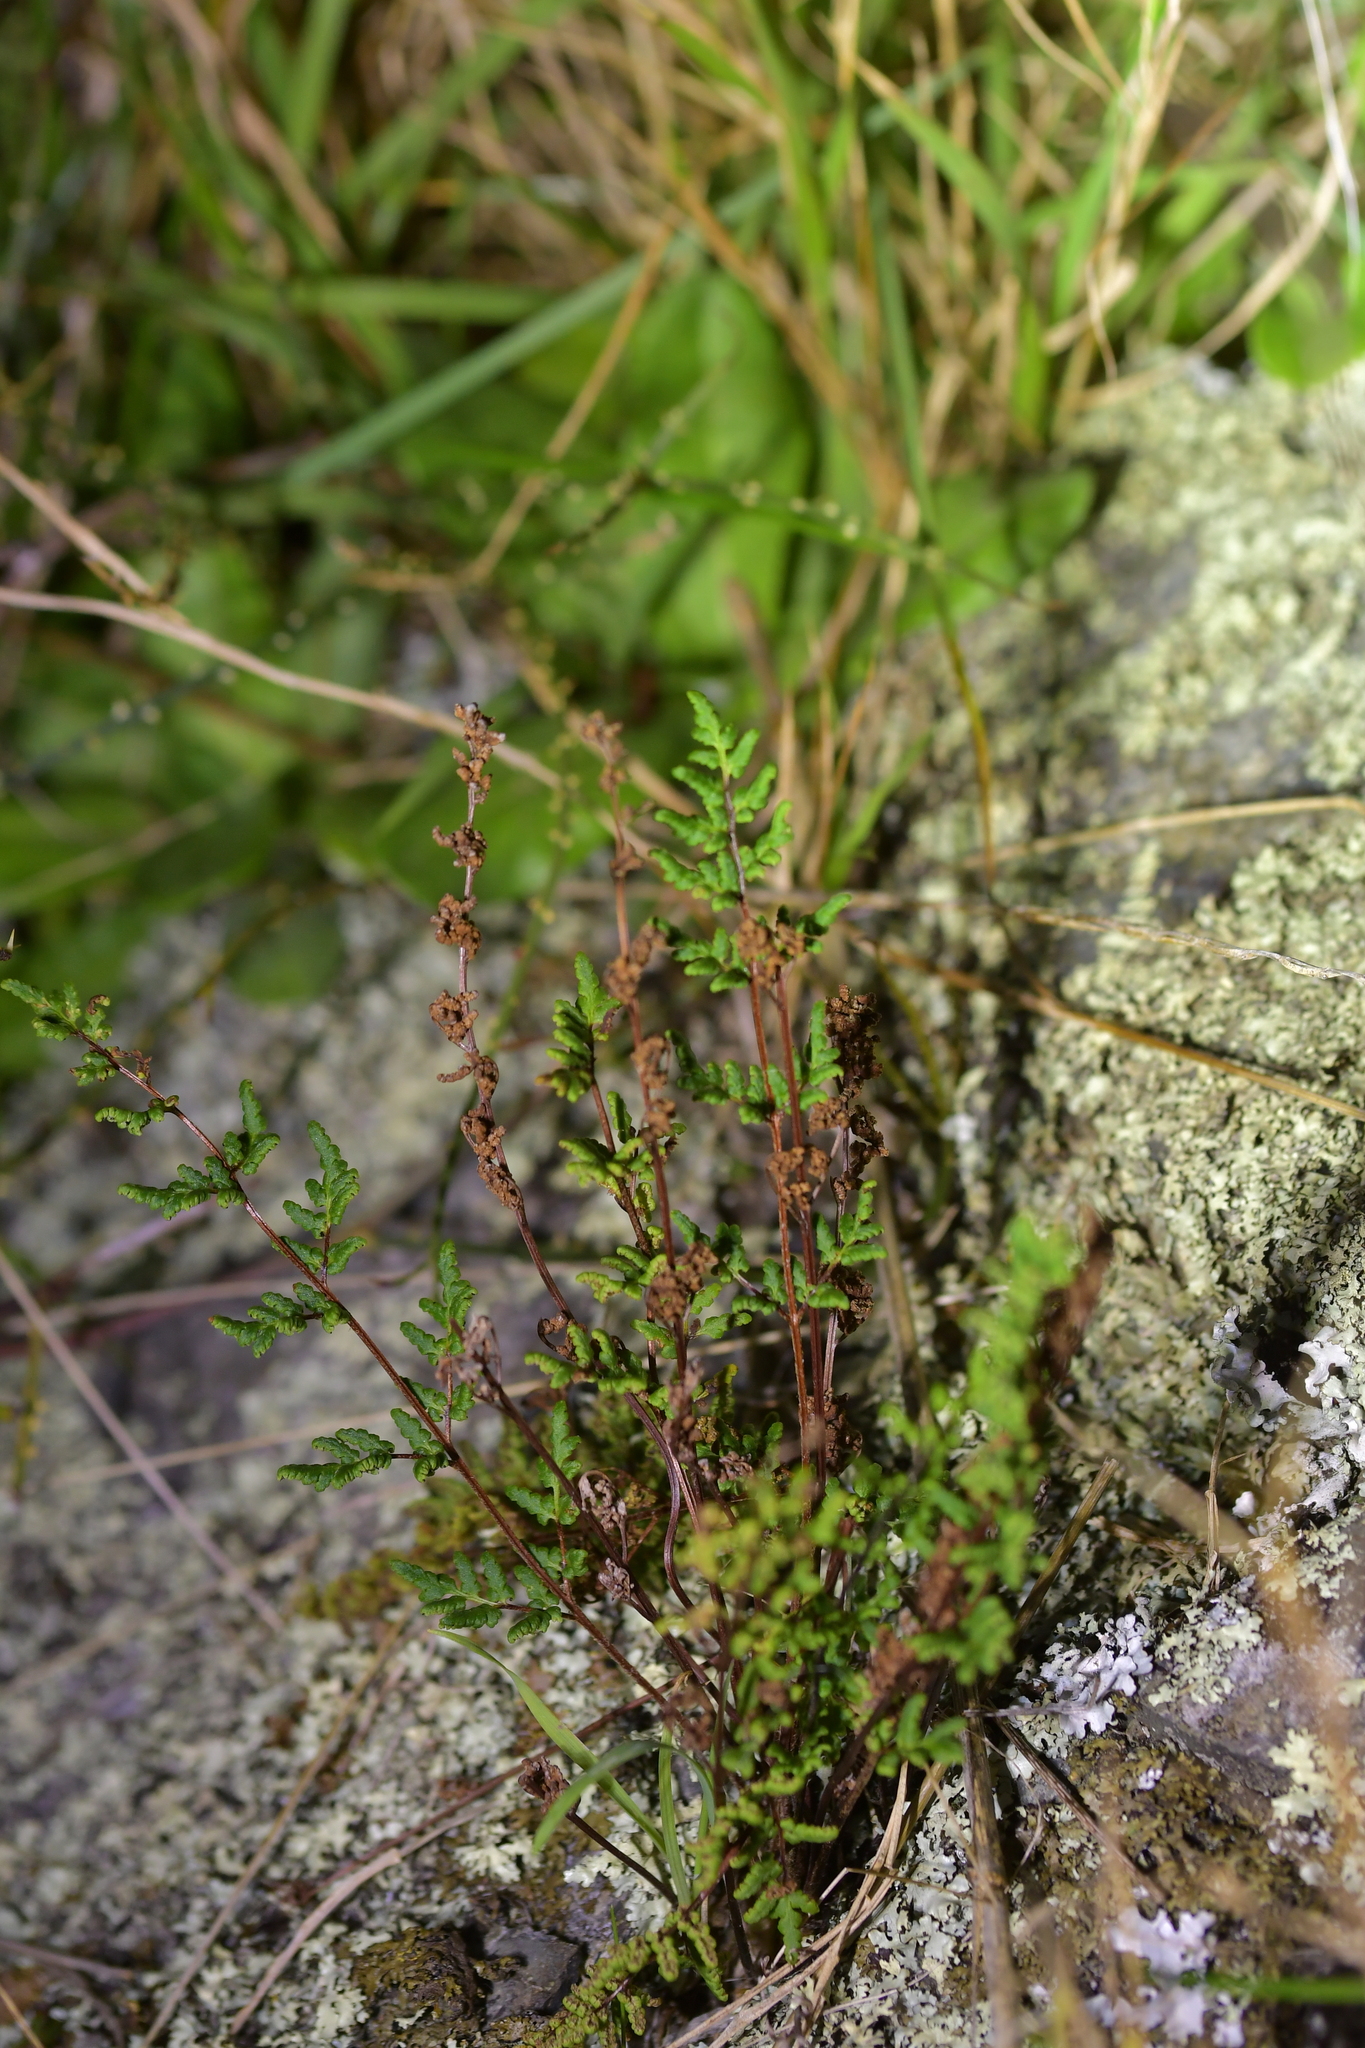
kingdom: Plantae
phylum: Tracheophyta
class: Polypodiopsida
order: Polypodiales
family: Pteridaceae
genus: Cheilanthes
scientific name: Cheilanthes sieberi
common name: Mulga fern
